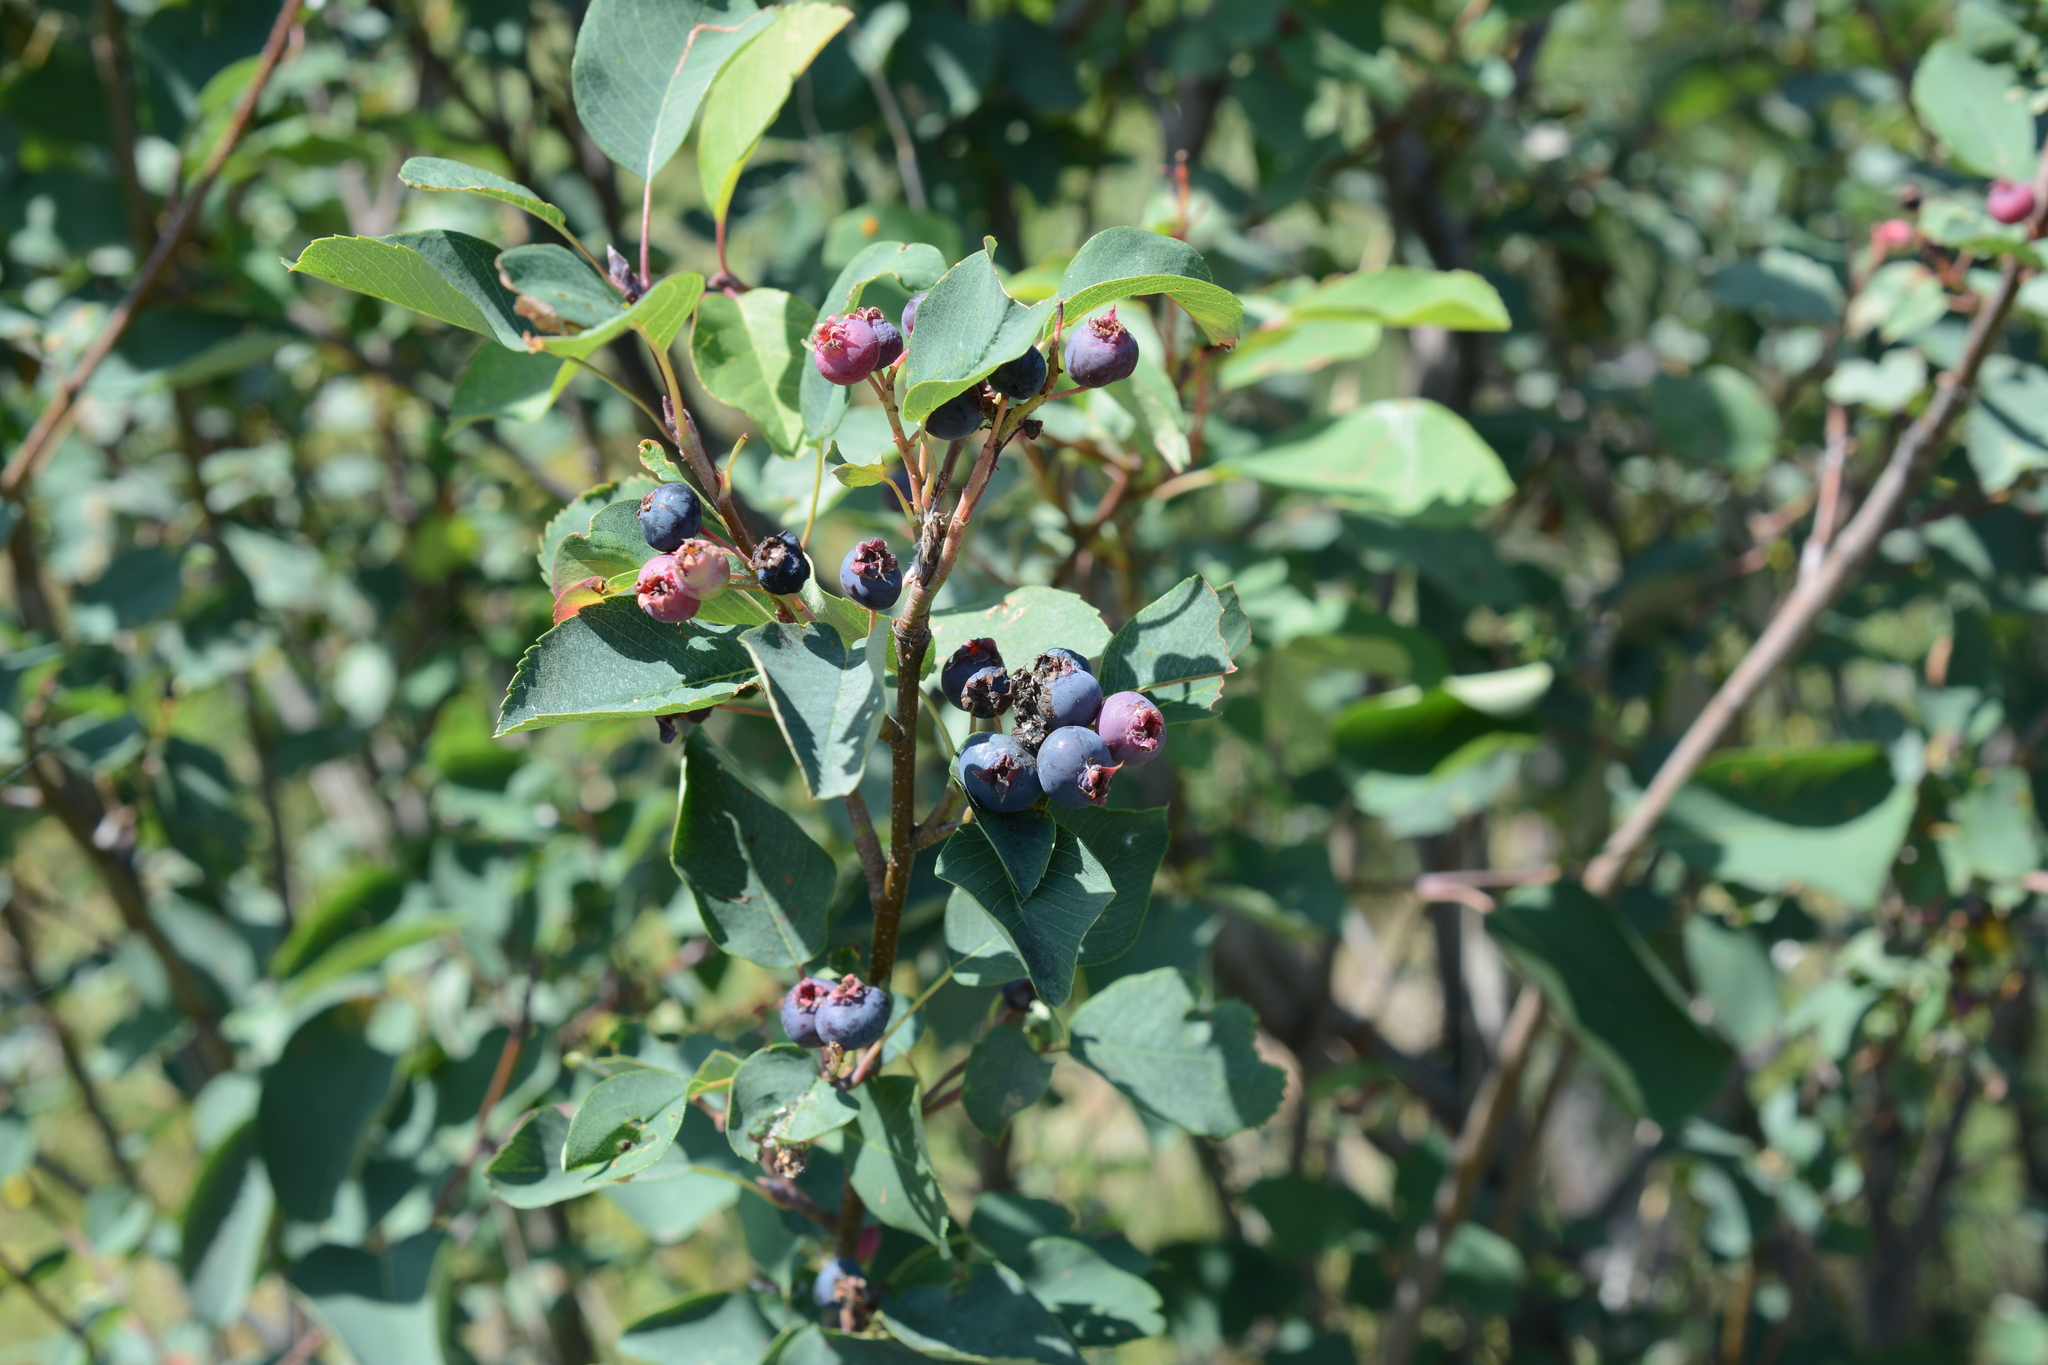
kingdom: Plantae
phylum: Tracheophyta
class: Magnoliopsida
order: Rosales
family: Rosaceae
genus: Amelanchier
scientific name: Amelanchier alnifolia
